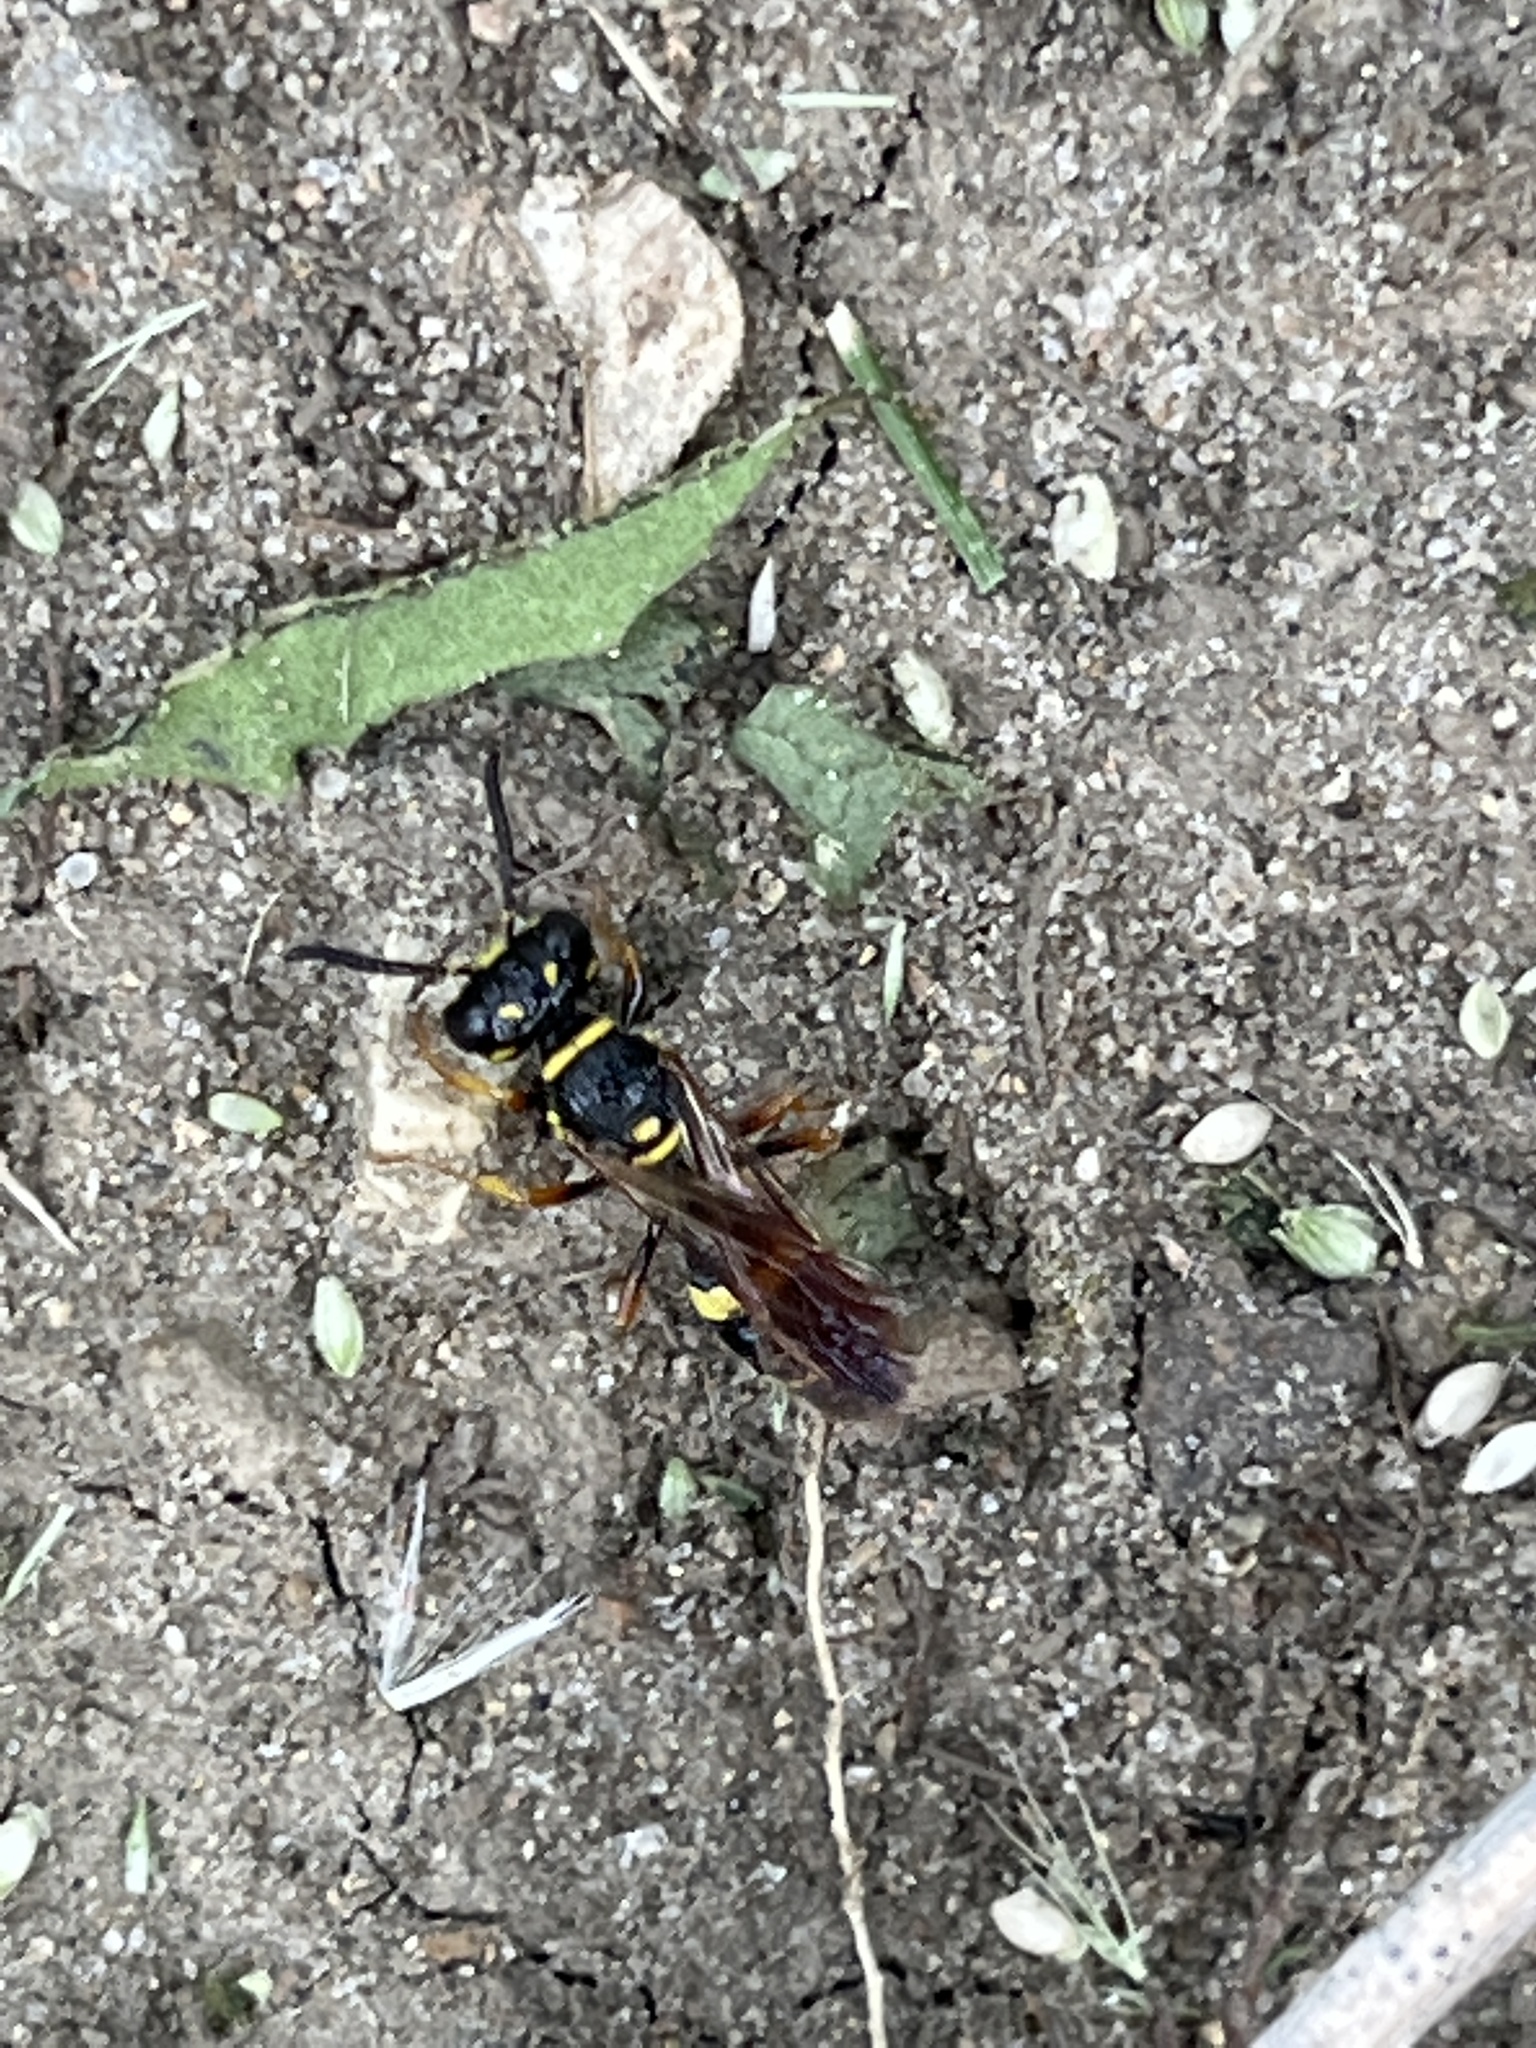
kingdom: Animalia
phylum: Arthropoda
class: Insecta
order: Hymenoptera
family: Crabronidae
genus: Philanthus
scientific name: Philanthus gibbosus
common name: Humped beewolf
